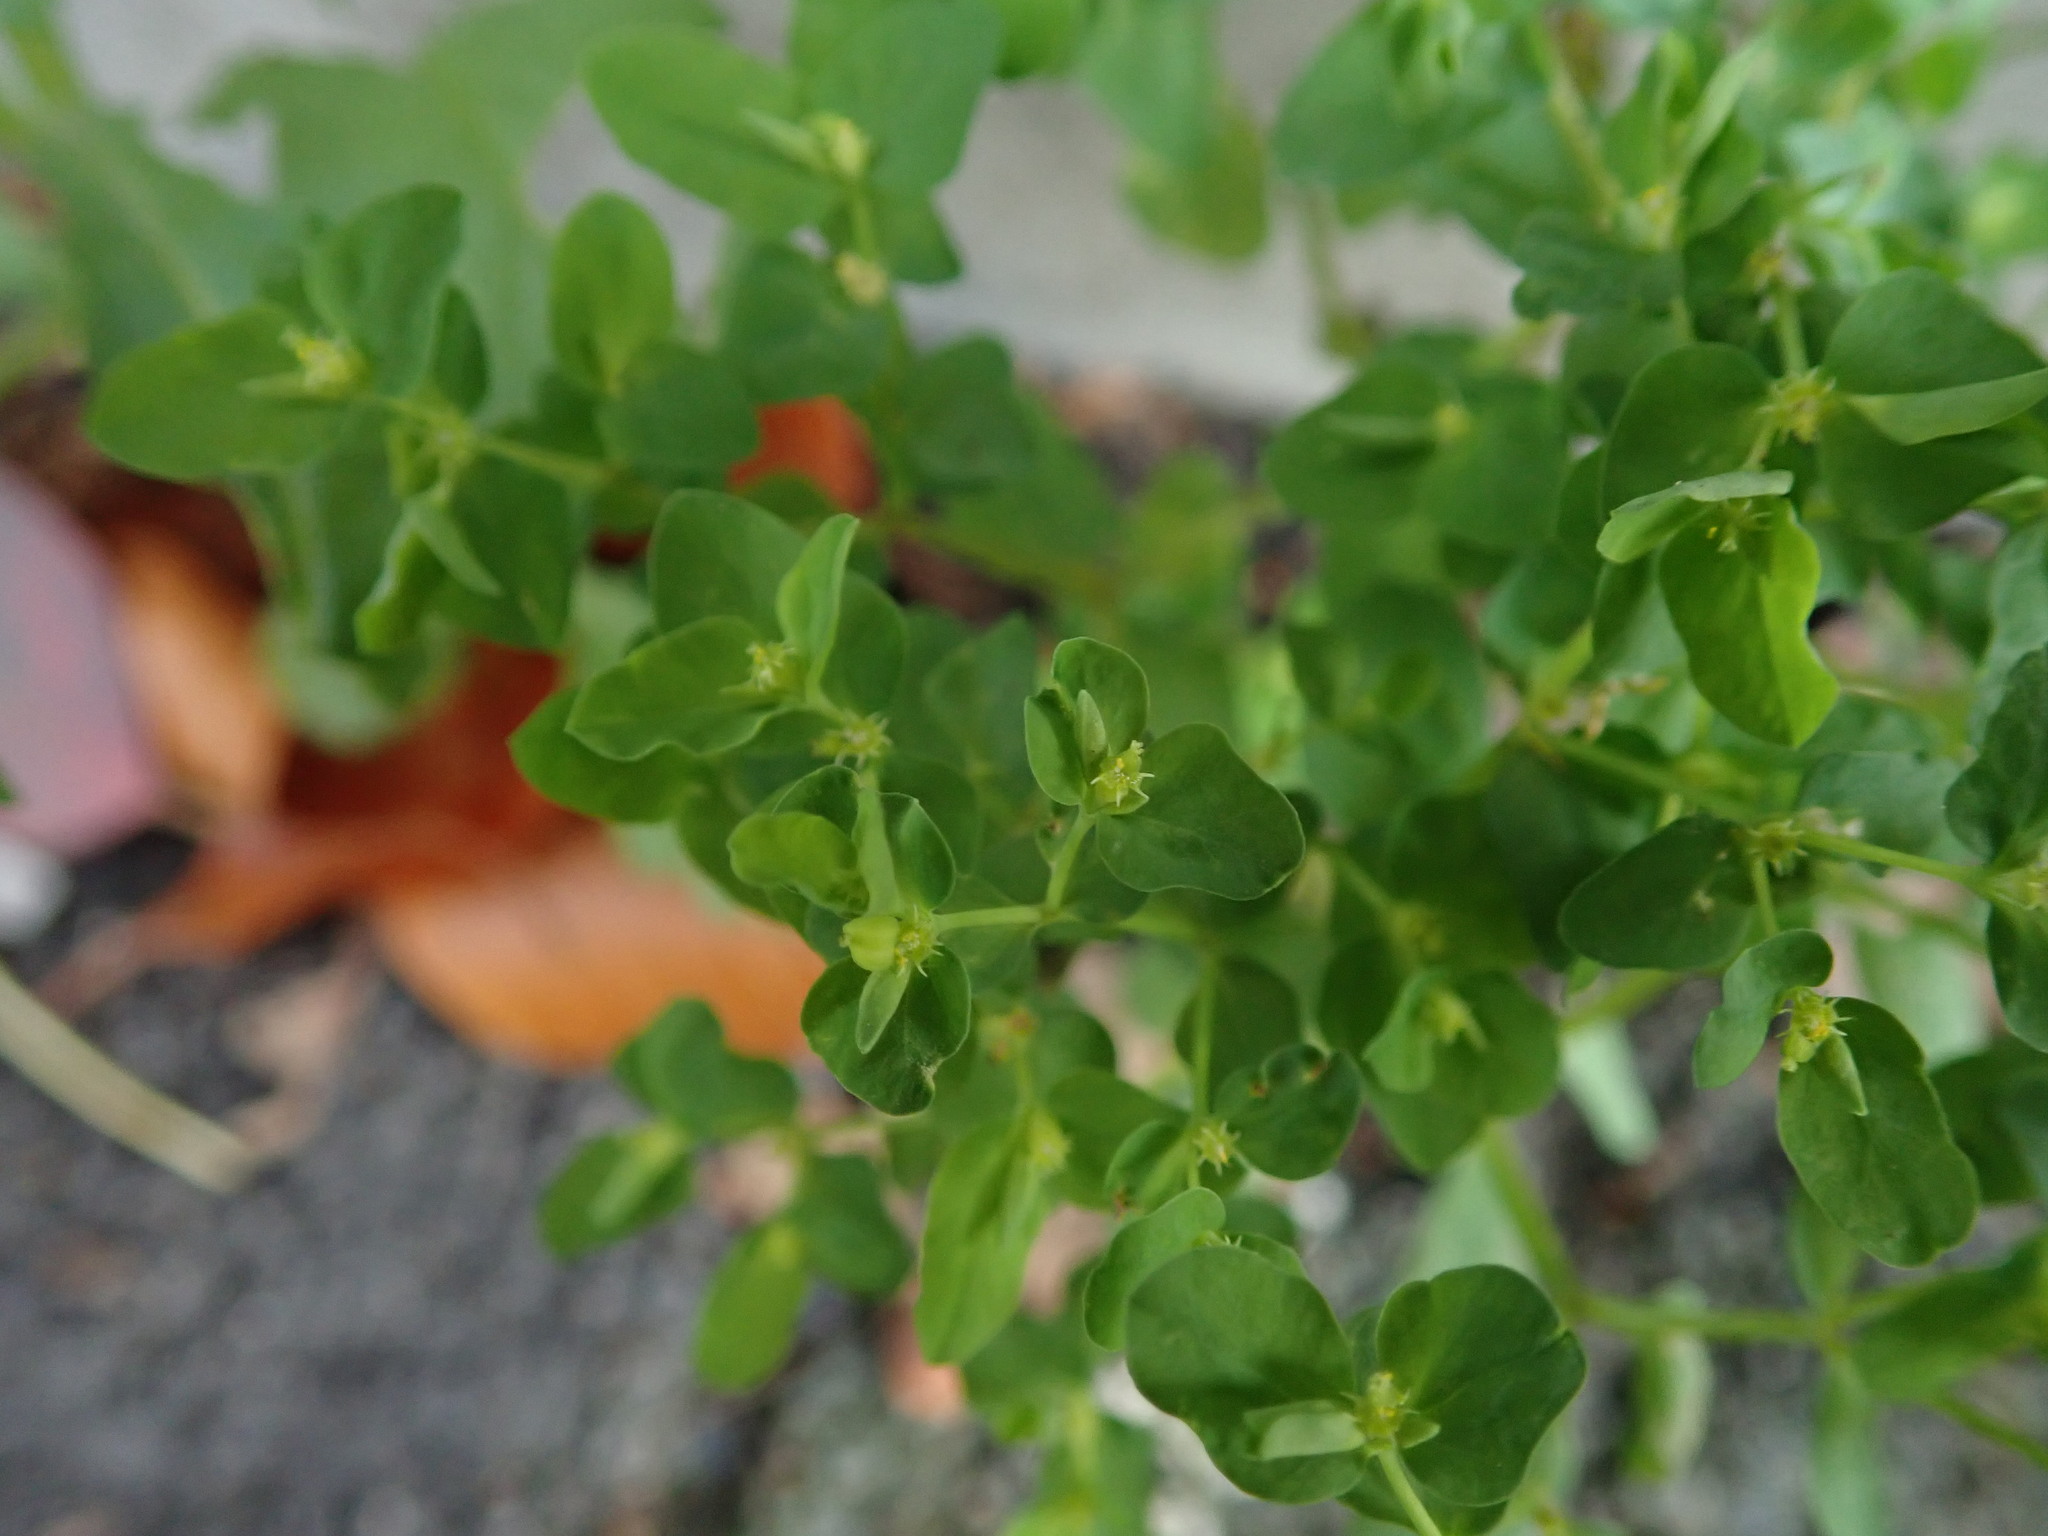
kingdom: Plantae
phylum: Tracheophyta
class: Magnoliopsida
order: Malpighiales
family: Euphorbiaceae
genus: Euphorbia
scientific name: Euphorbia peplus
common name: Petty spurge
